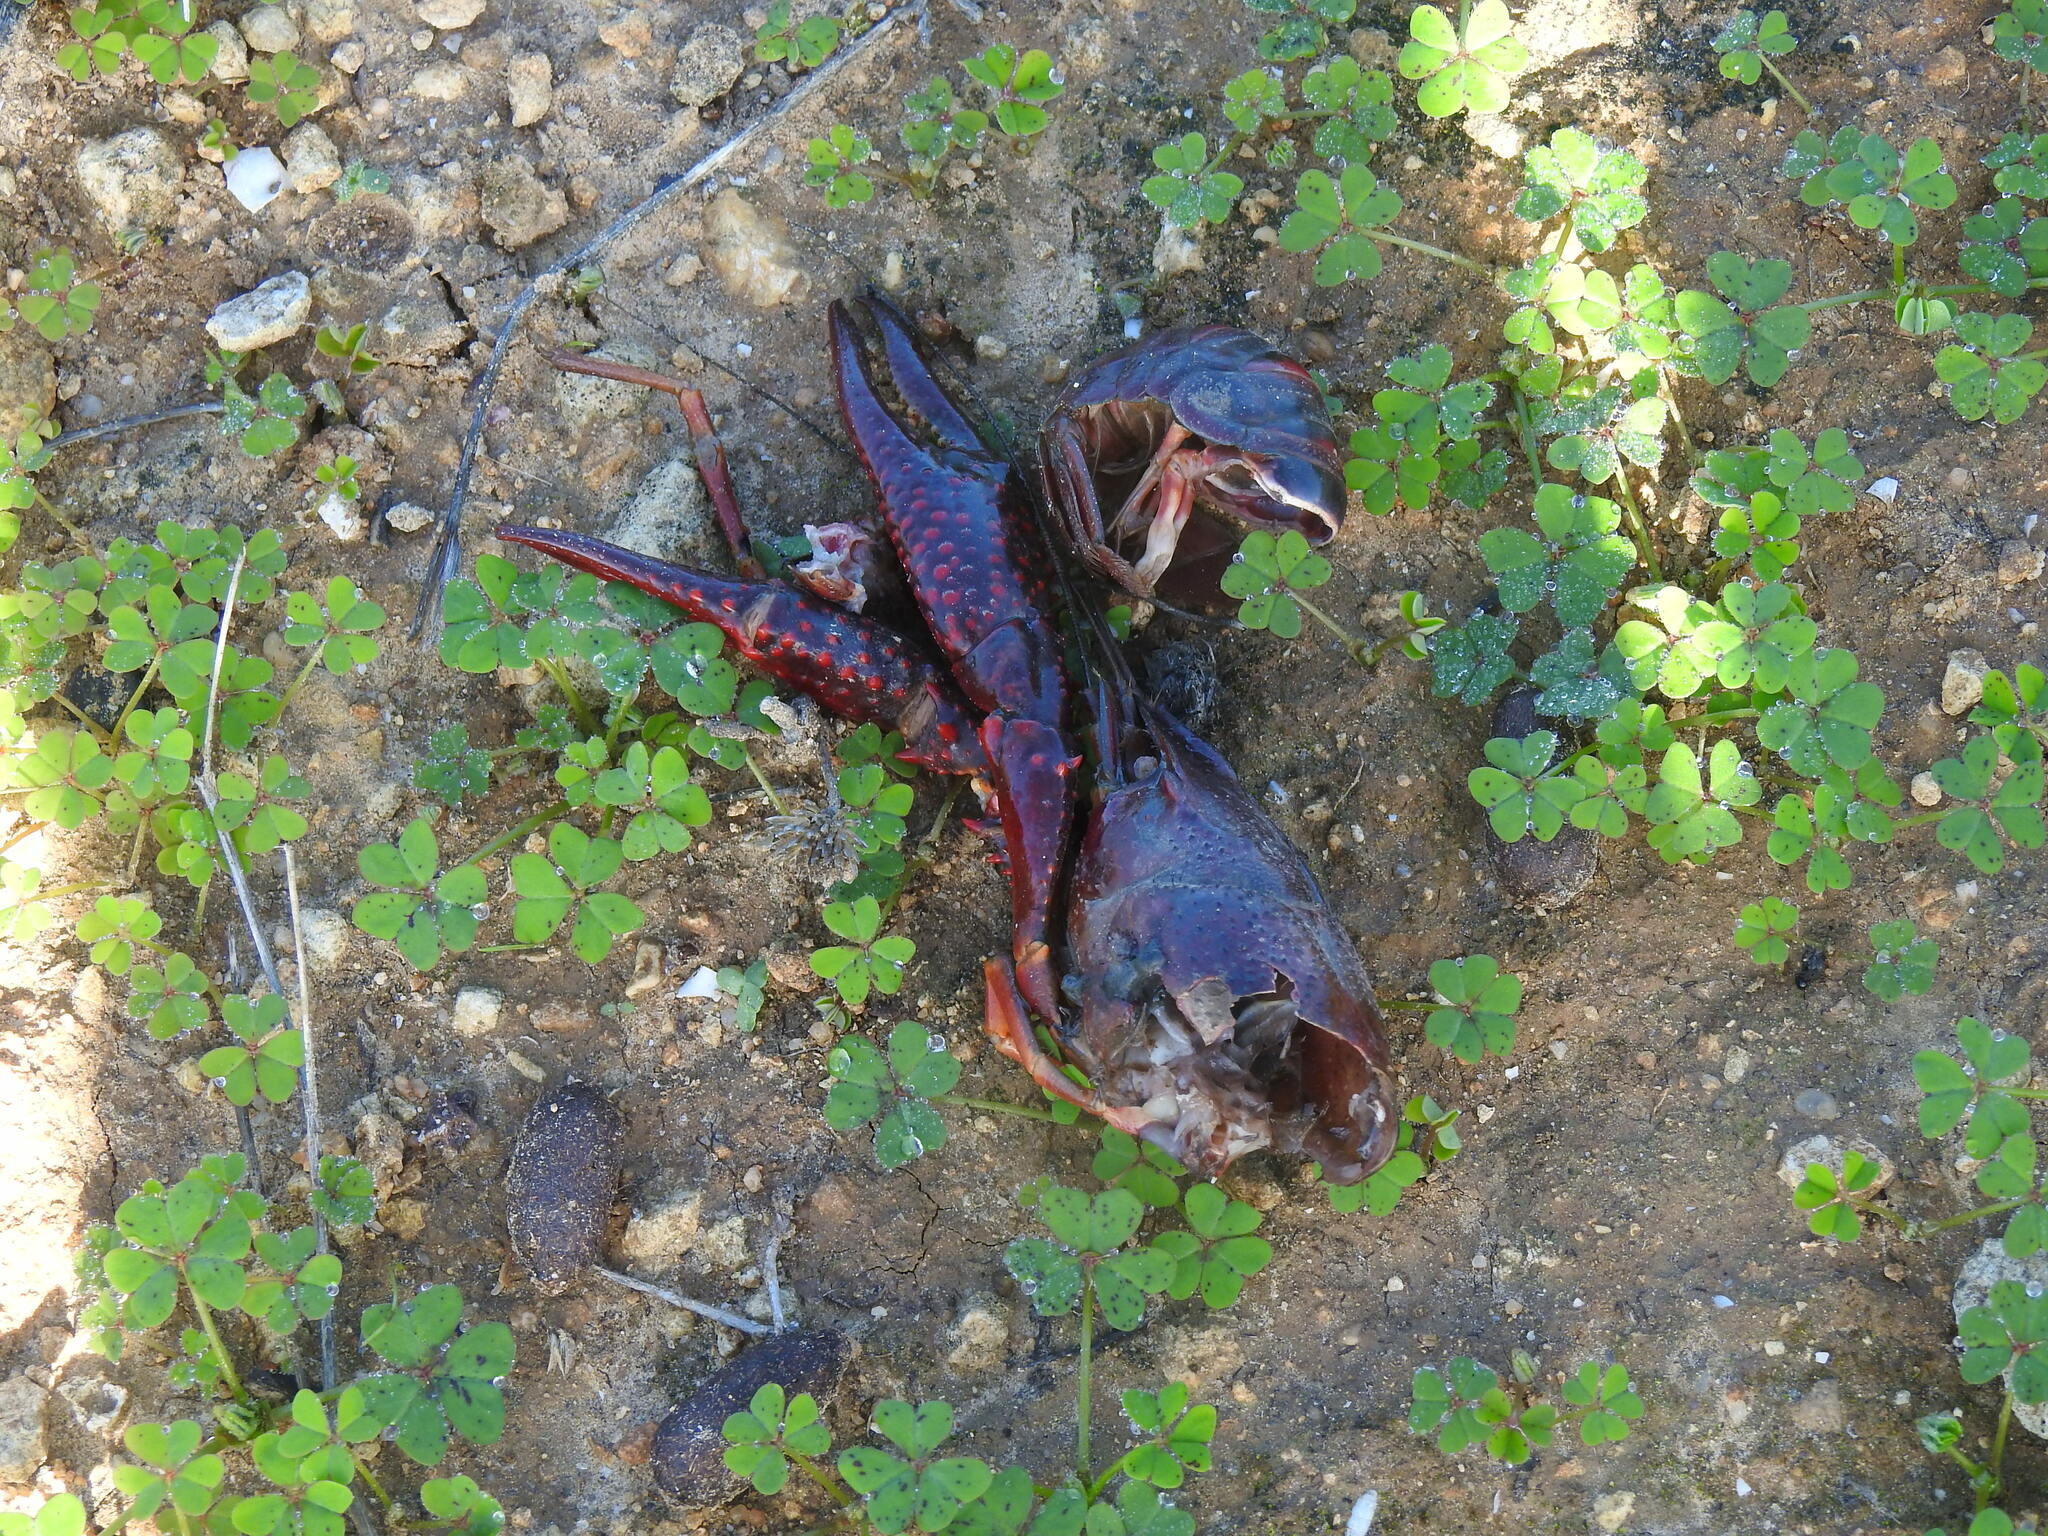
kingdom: Animalia
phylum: Arthropoda
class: Malacostraca
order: Decapoda
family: Cambaridae
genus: Procambarus
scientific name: Procambarus clarkii
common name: Red swamp crayfish
